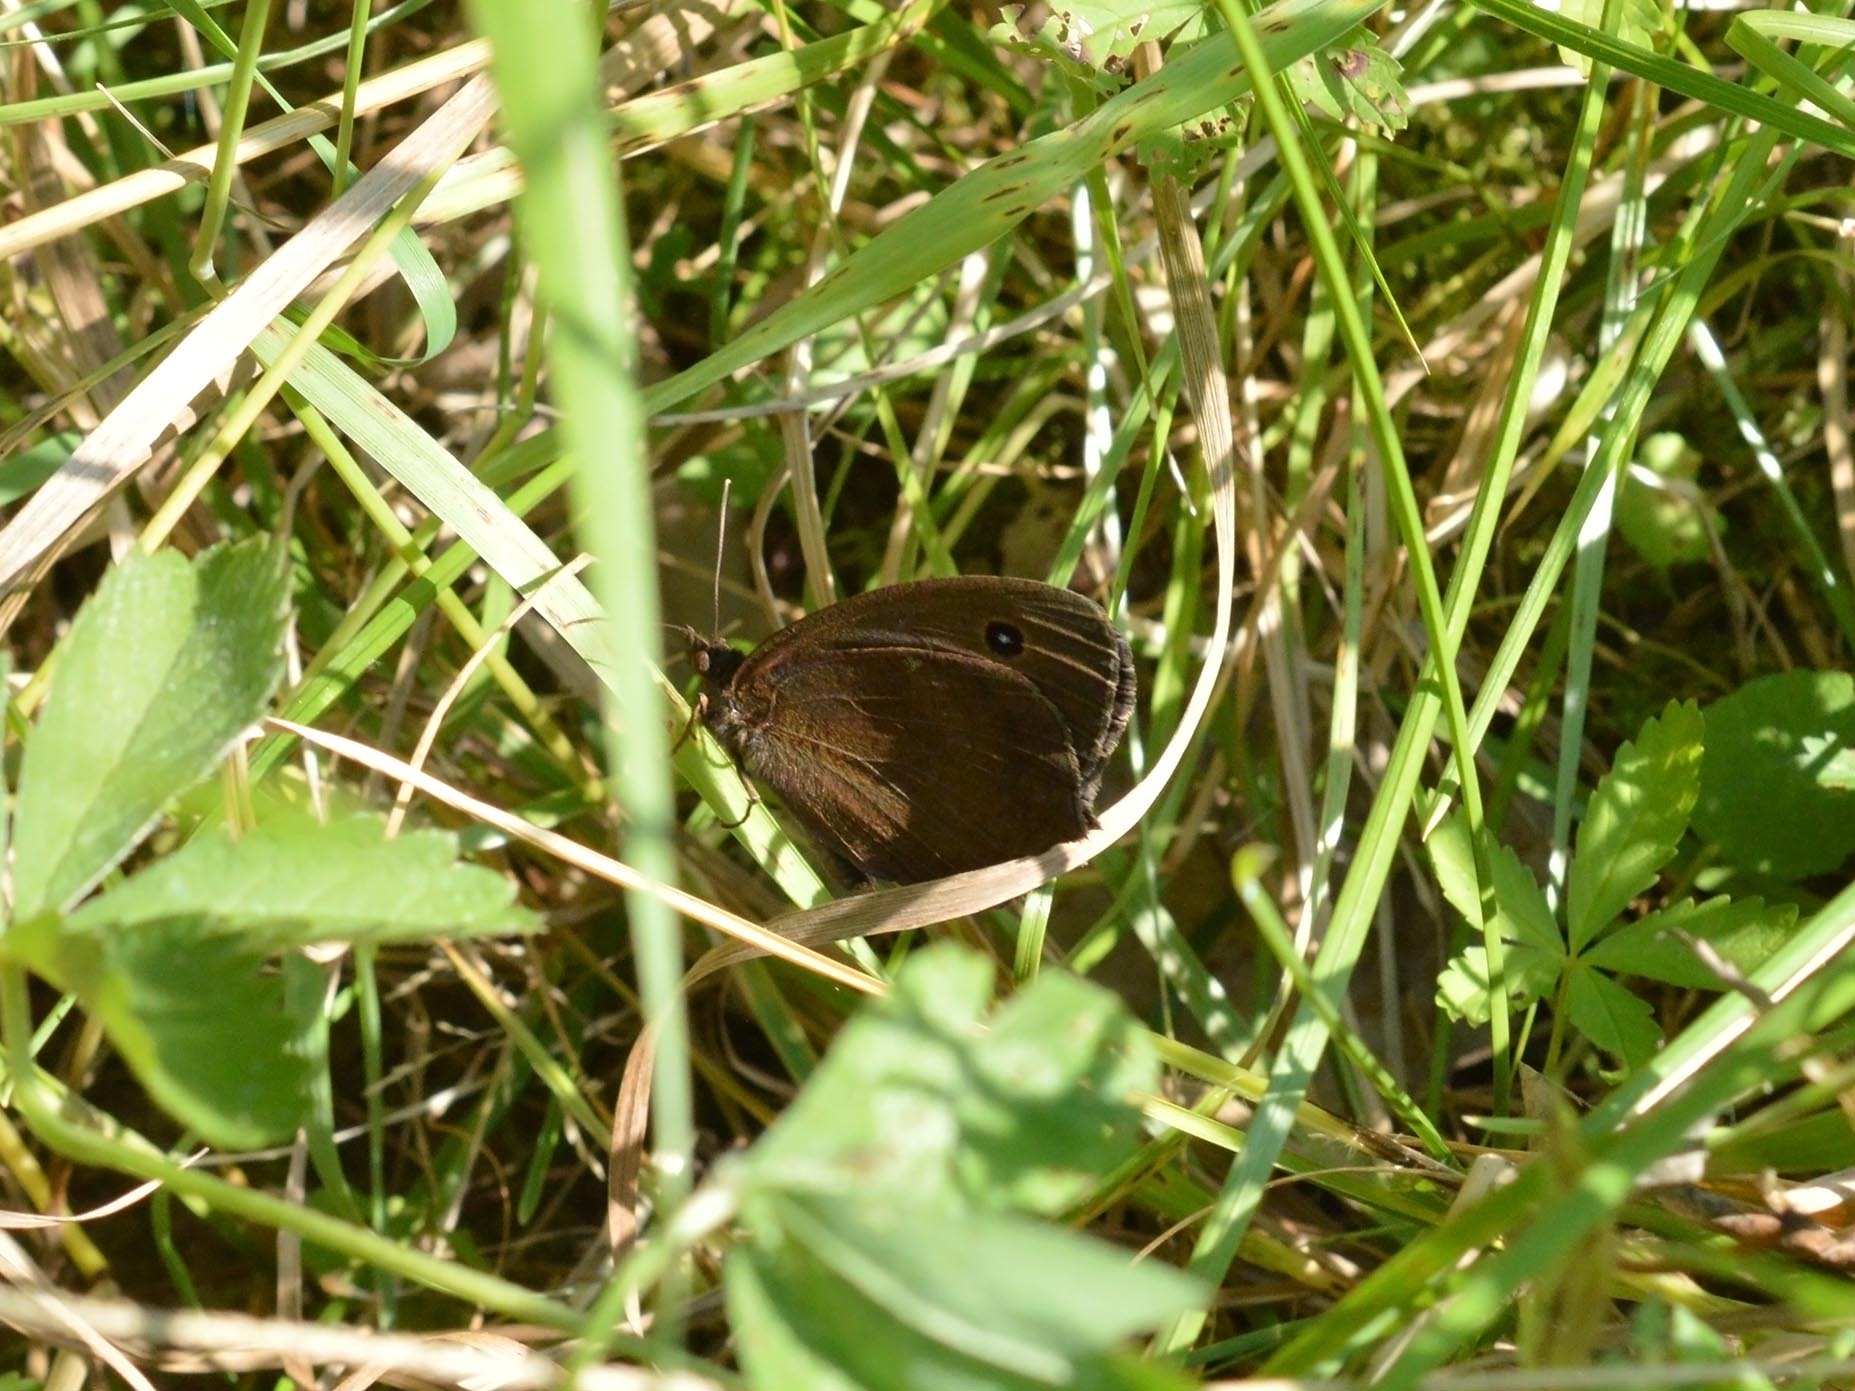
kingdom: Animalia
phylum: Arthropoda
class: Insecta
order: Lepidoptera
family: Nymphalidae
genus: Minois
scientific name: Minois dryas
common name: Dryad
